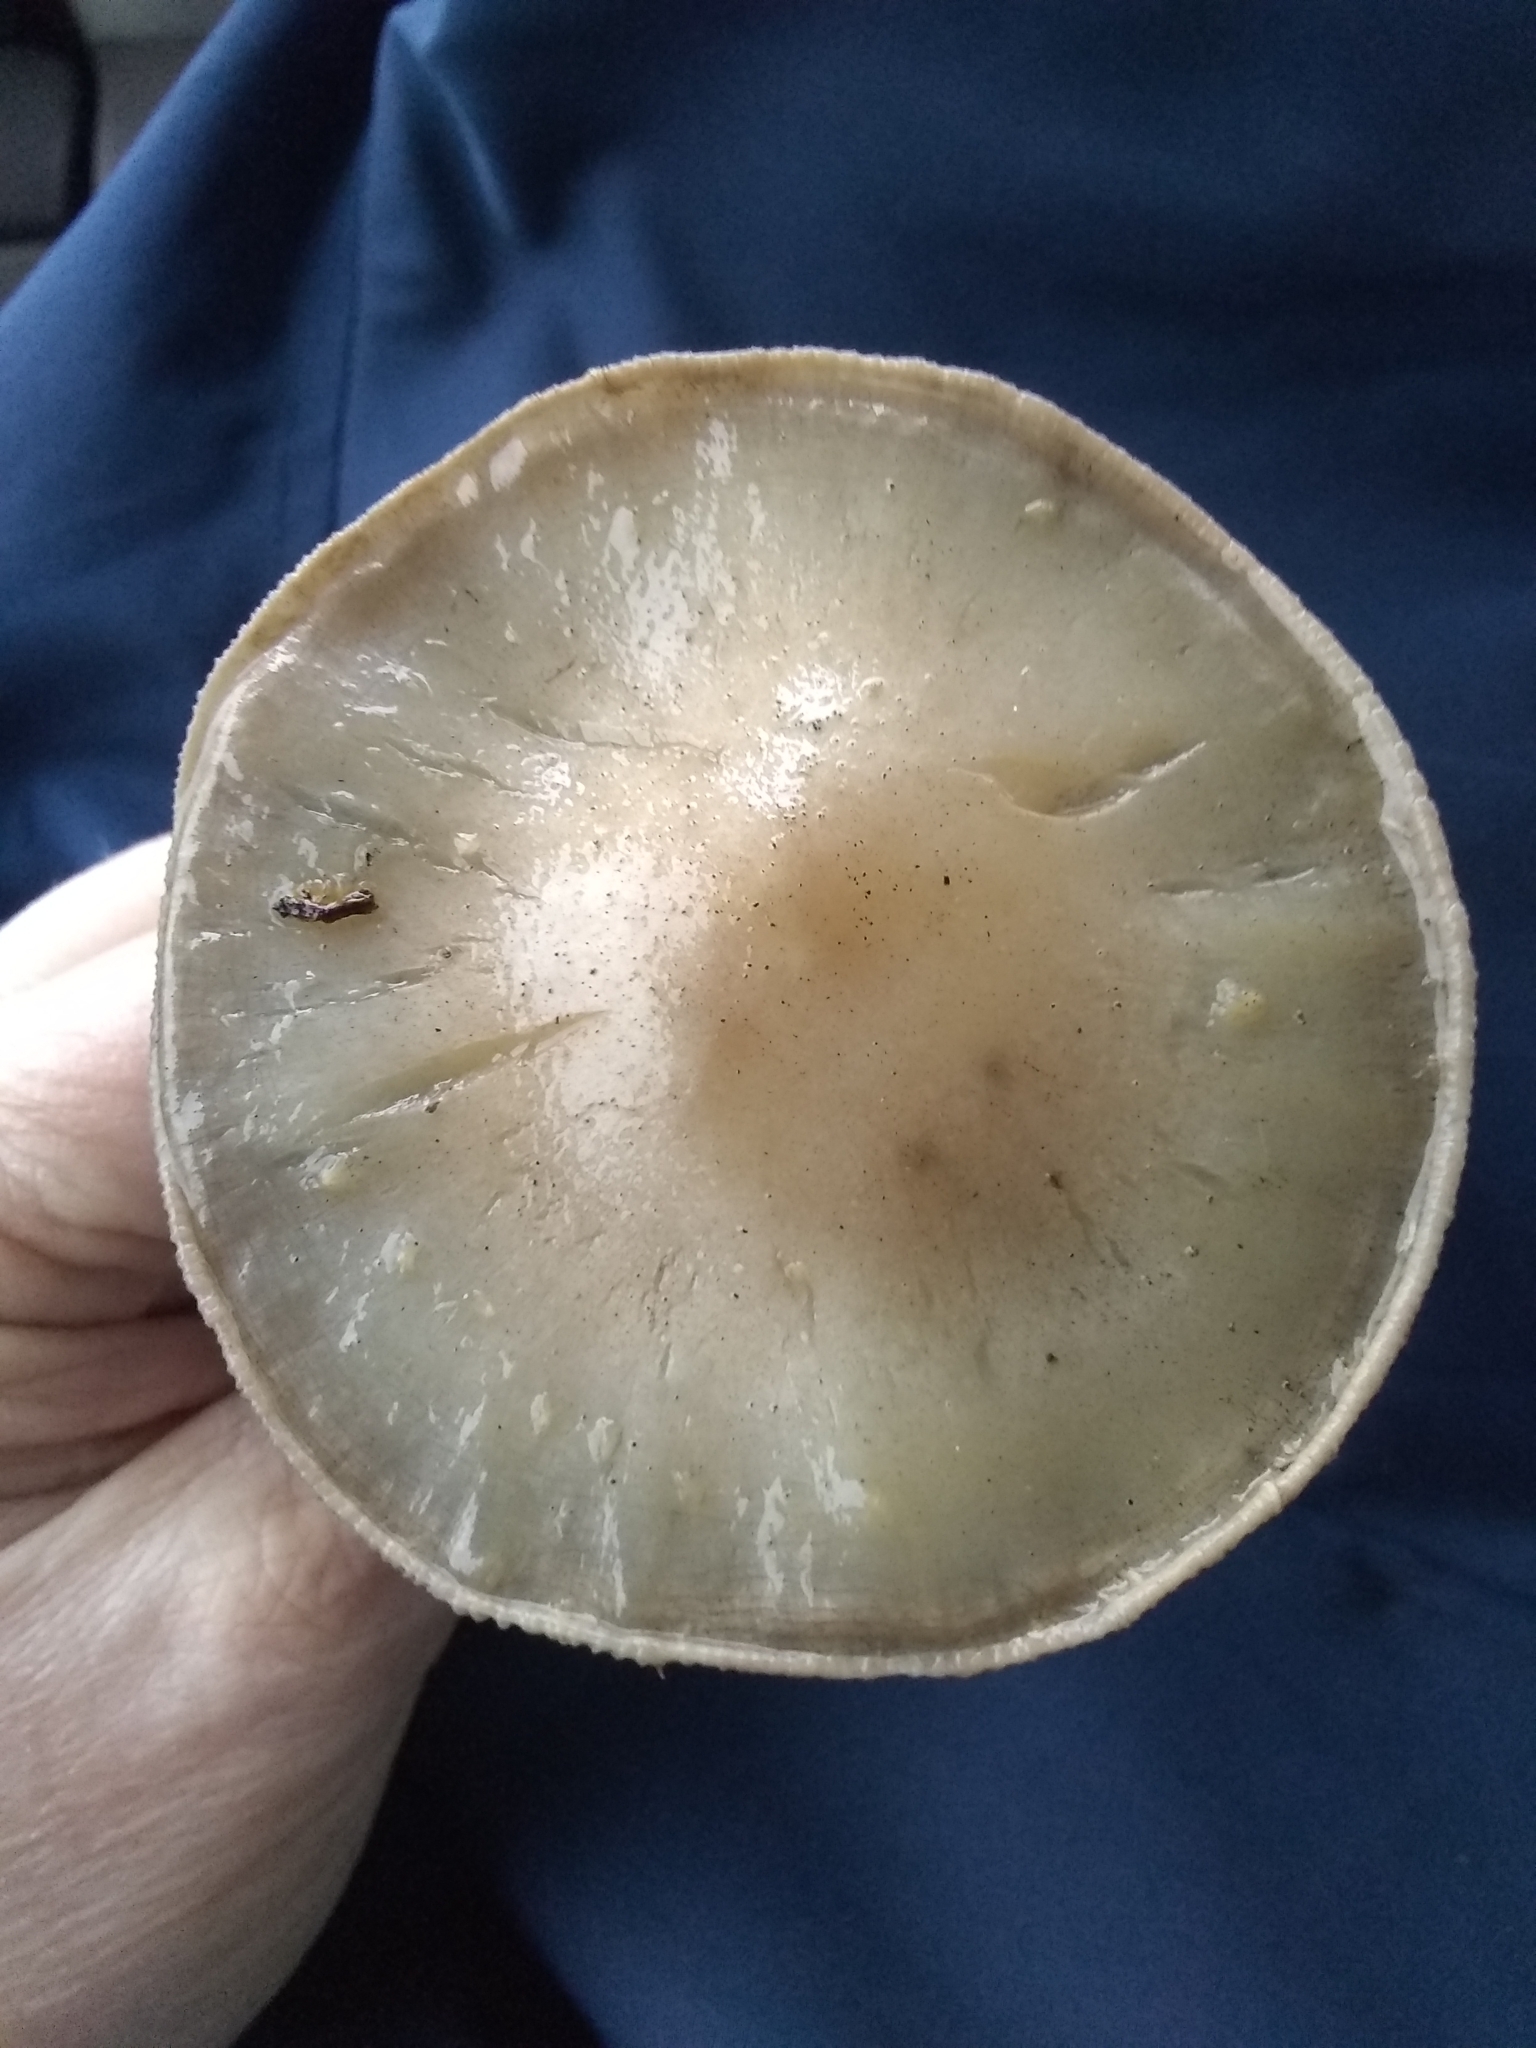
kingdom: Fungi
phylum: Basidiomycota
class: Agaricomycetes
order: Agaricales
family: Strophariaceae
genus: Agrocybe
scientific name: Agrocybe putaminum
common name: Mulch fieldcap
